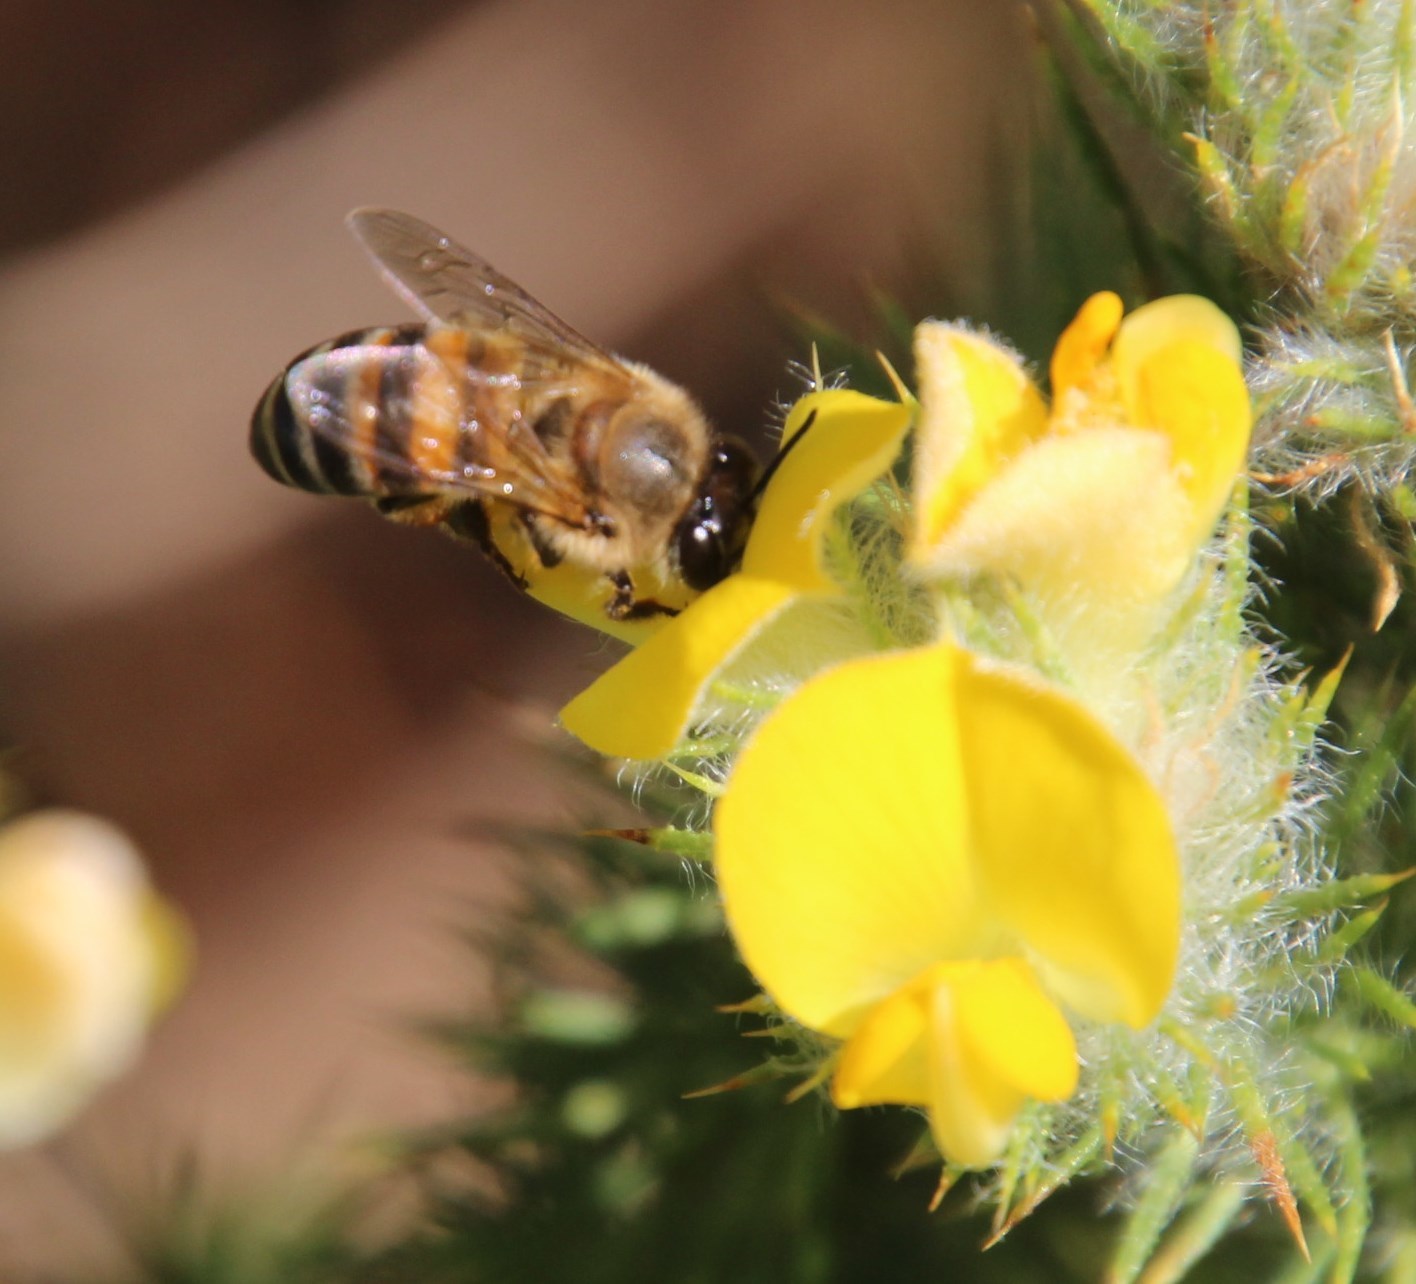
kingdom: Plantae
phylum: Tracheophyta
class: Magnoliopsida
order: Fabales
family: Fabaceae
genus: Aspalathus
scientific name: Aspalathus chenopoda
